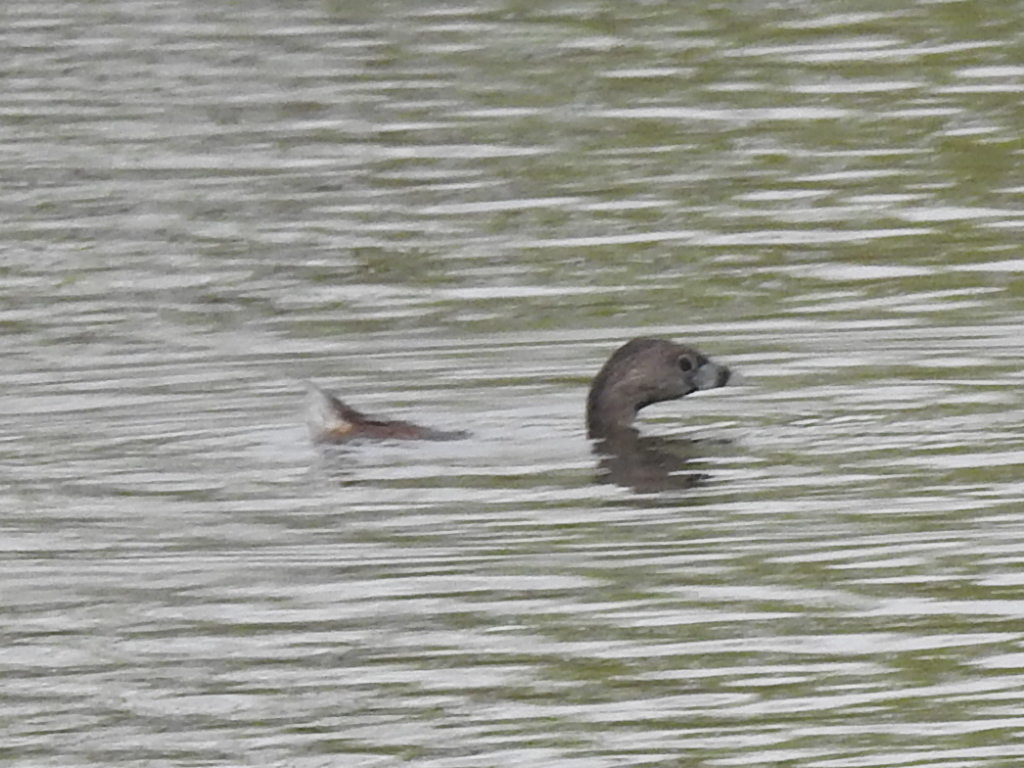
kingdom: Animalia
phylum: Chordata
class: Aves
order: Podicipediformes
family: Podicipedidae
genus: Podilymbus
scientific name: Podilymbus podiceps
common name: Pied-billed grebe
